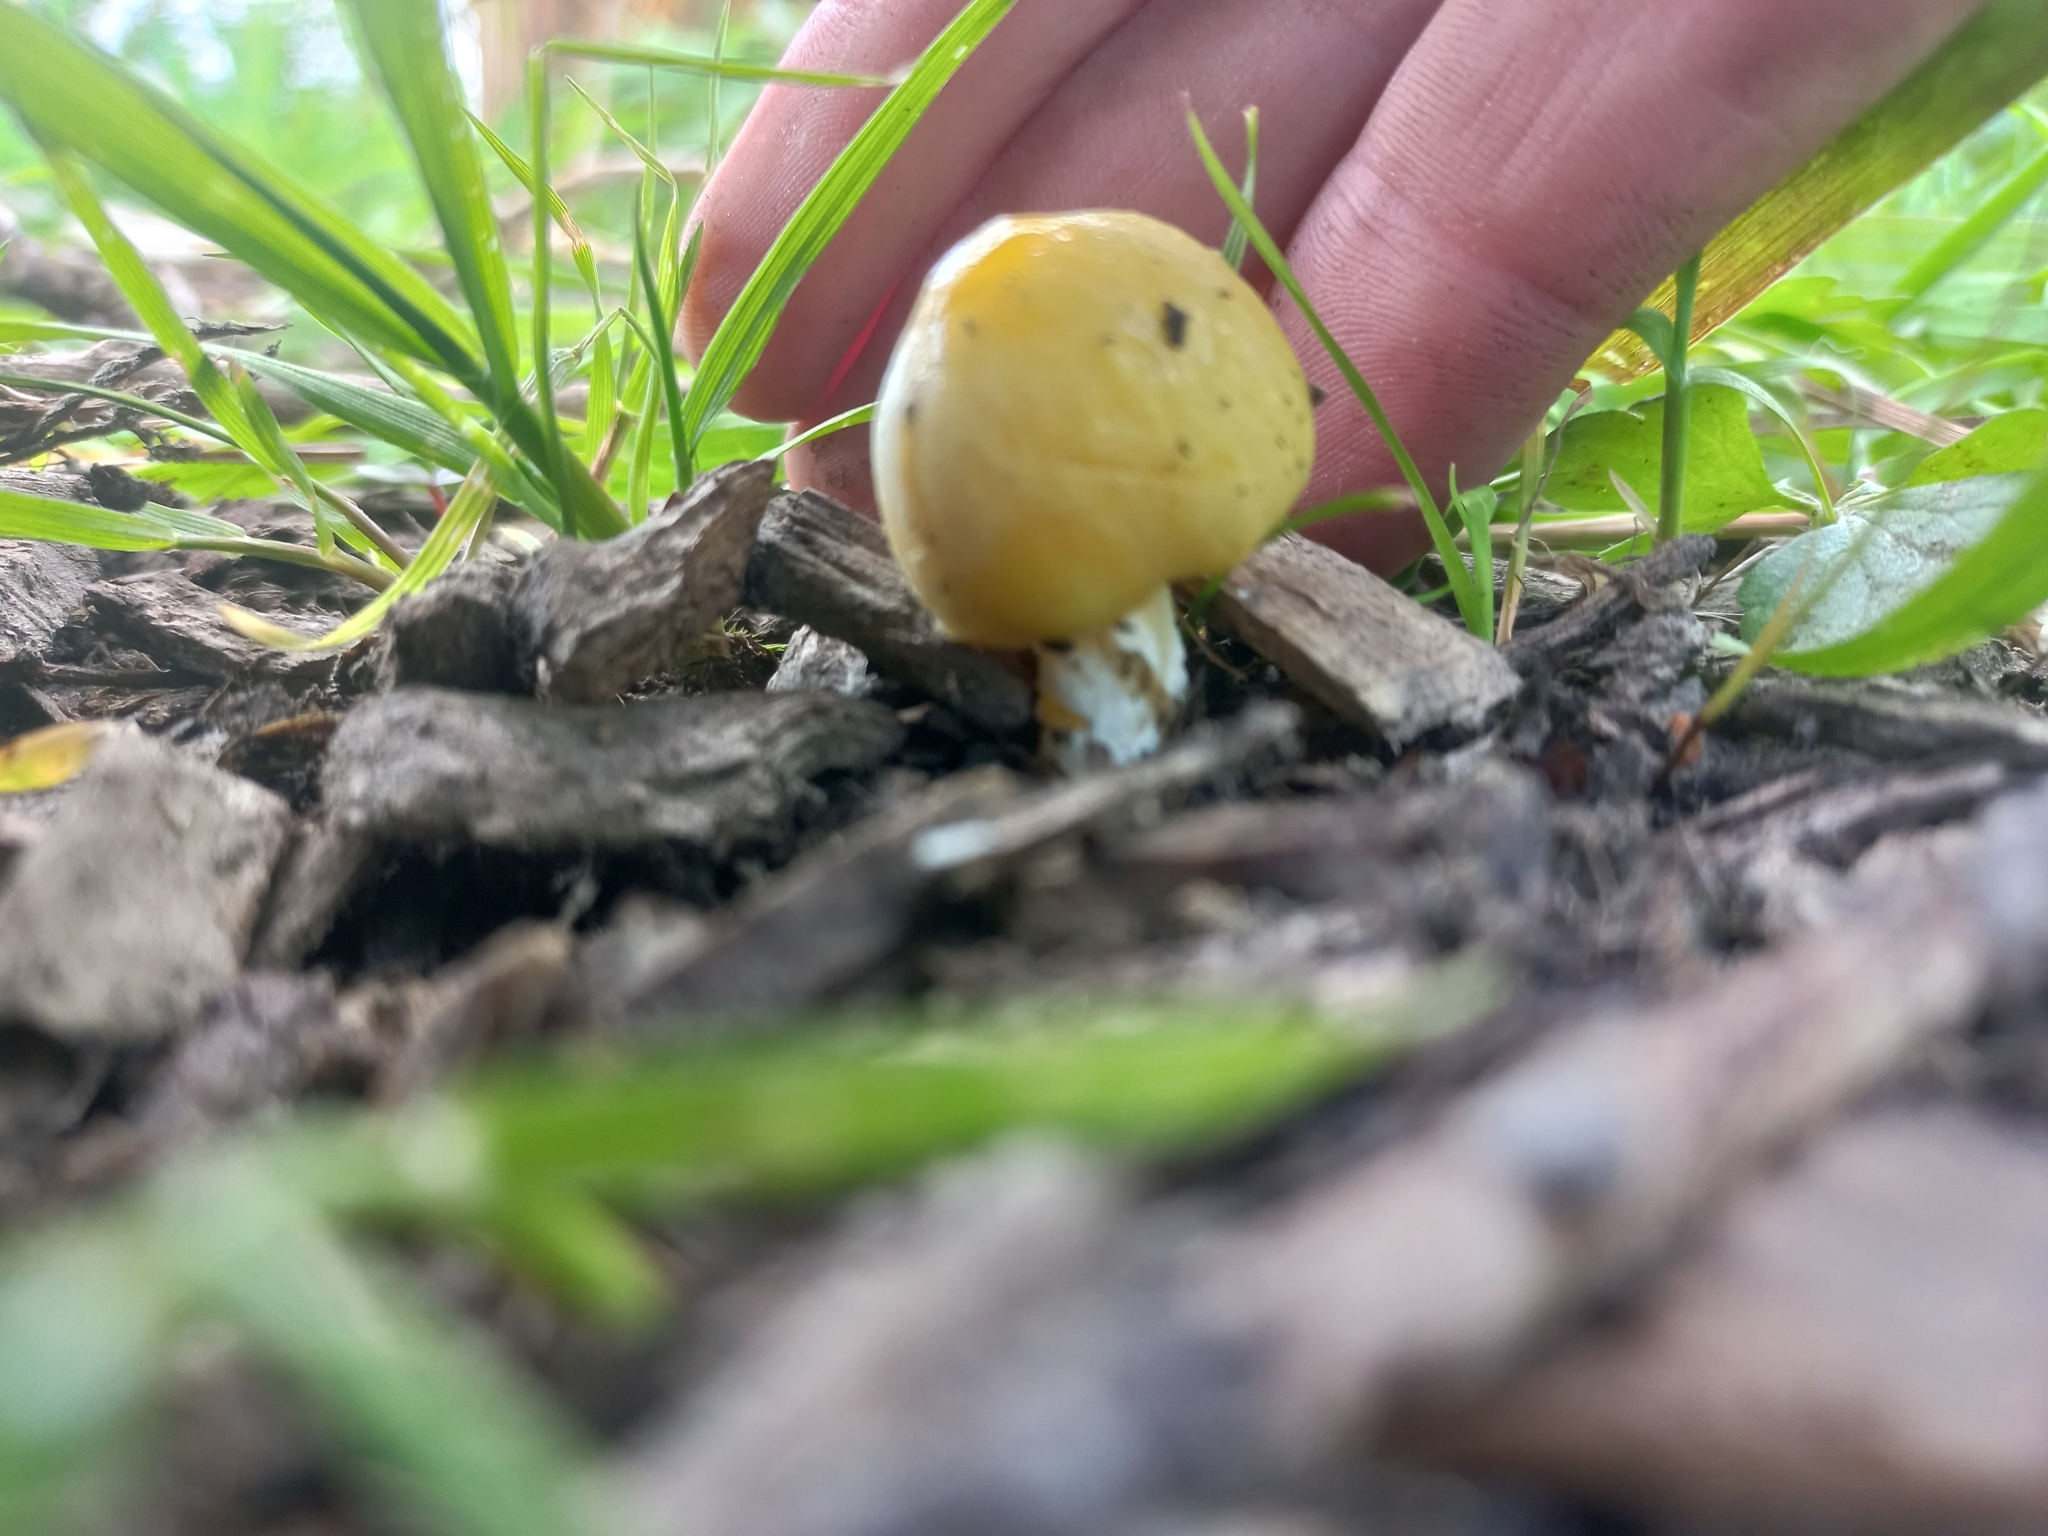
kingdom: Fungi
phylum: Basidiomycota
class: Agaricomycetes
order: Agaricales
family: Bolbitiaceae
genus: Bolbitius
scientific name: Bolbitius titubans
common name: Yellow fieldcap
